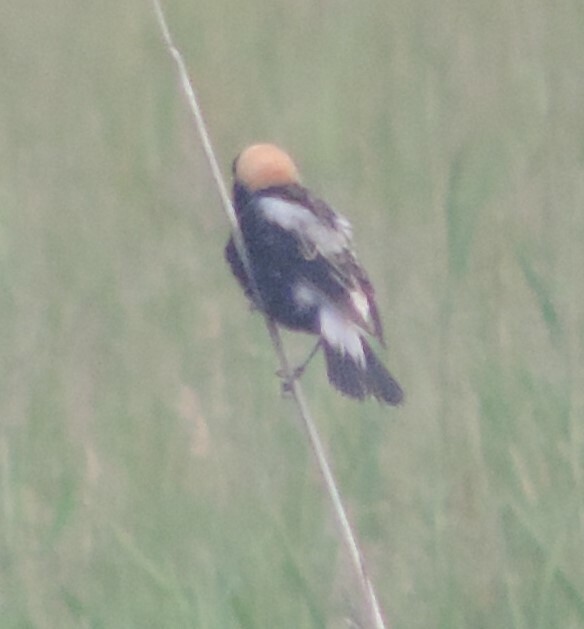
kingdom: Animalia
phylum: Chordata
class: Aves
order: Passeriformes
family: Icteridae
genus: Dolichonyx
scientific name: Dolichonyx oryzivorus
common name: Bobolink
